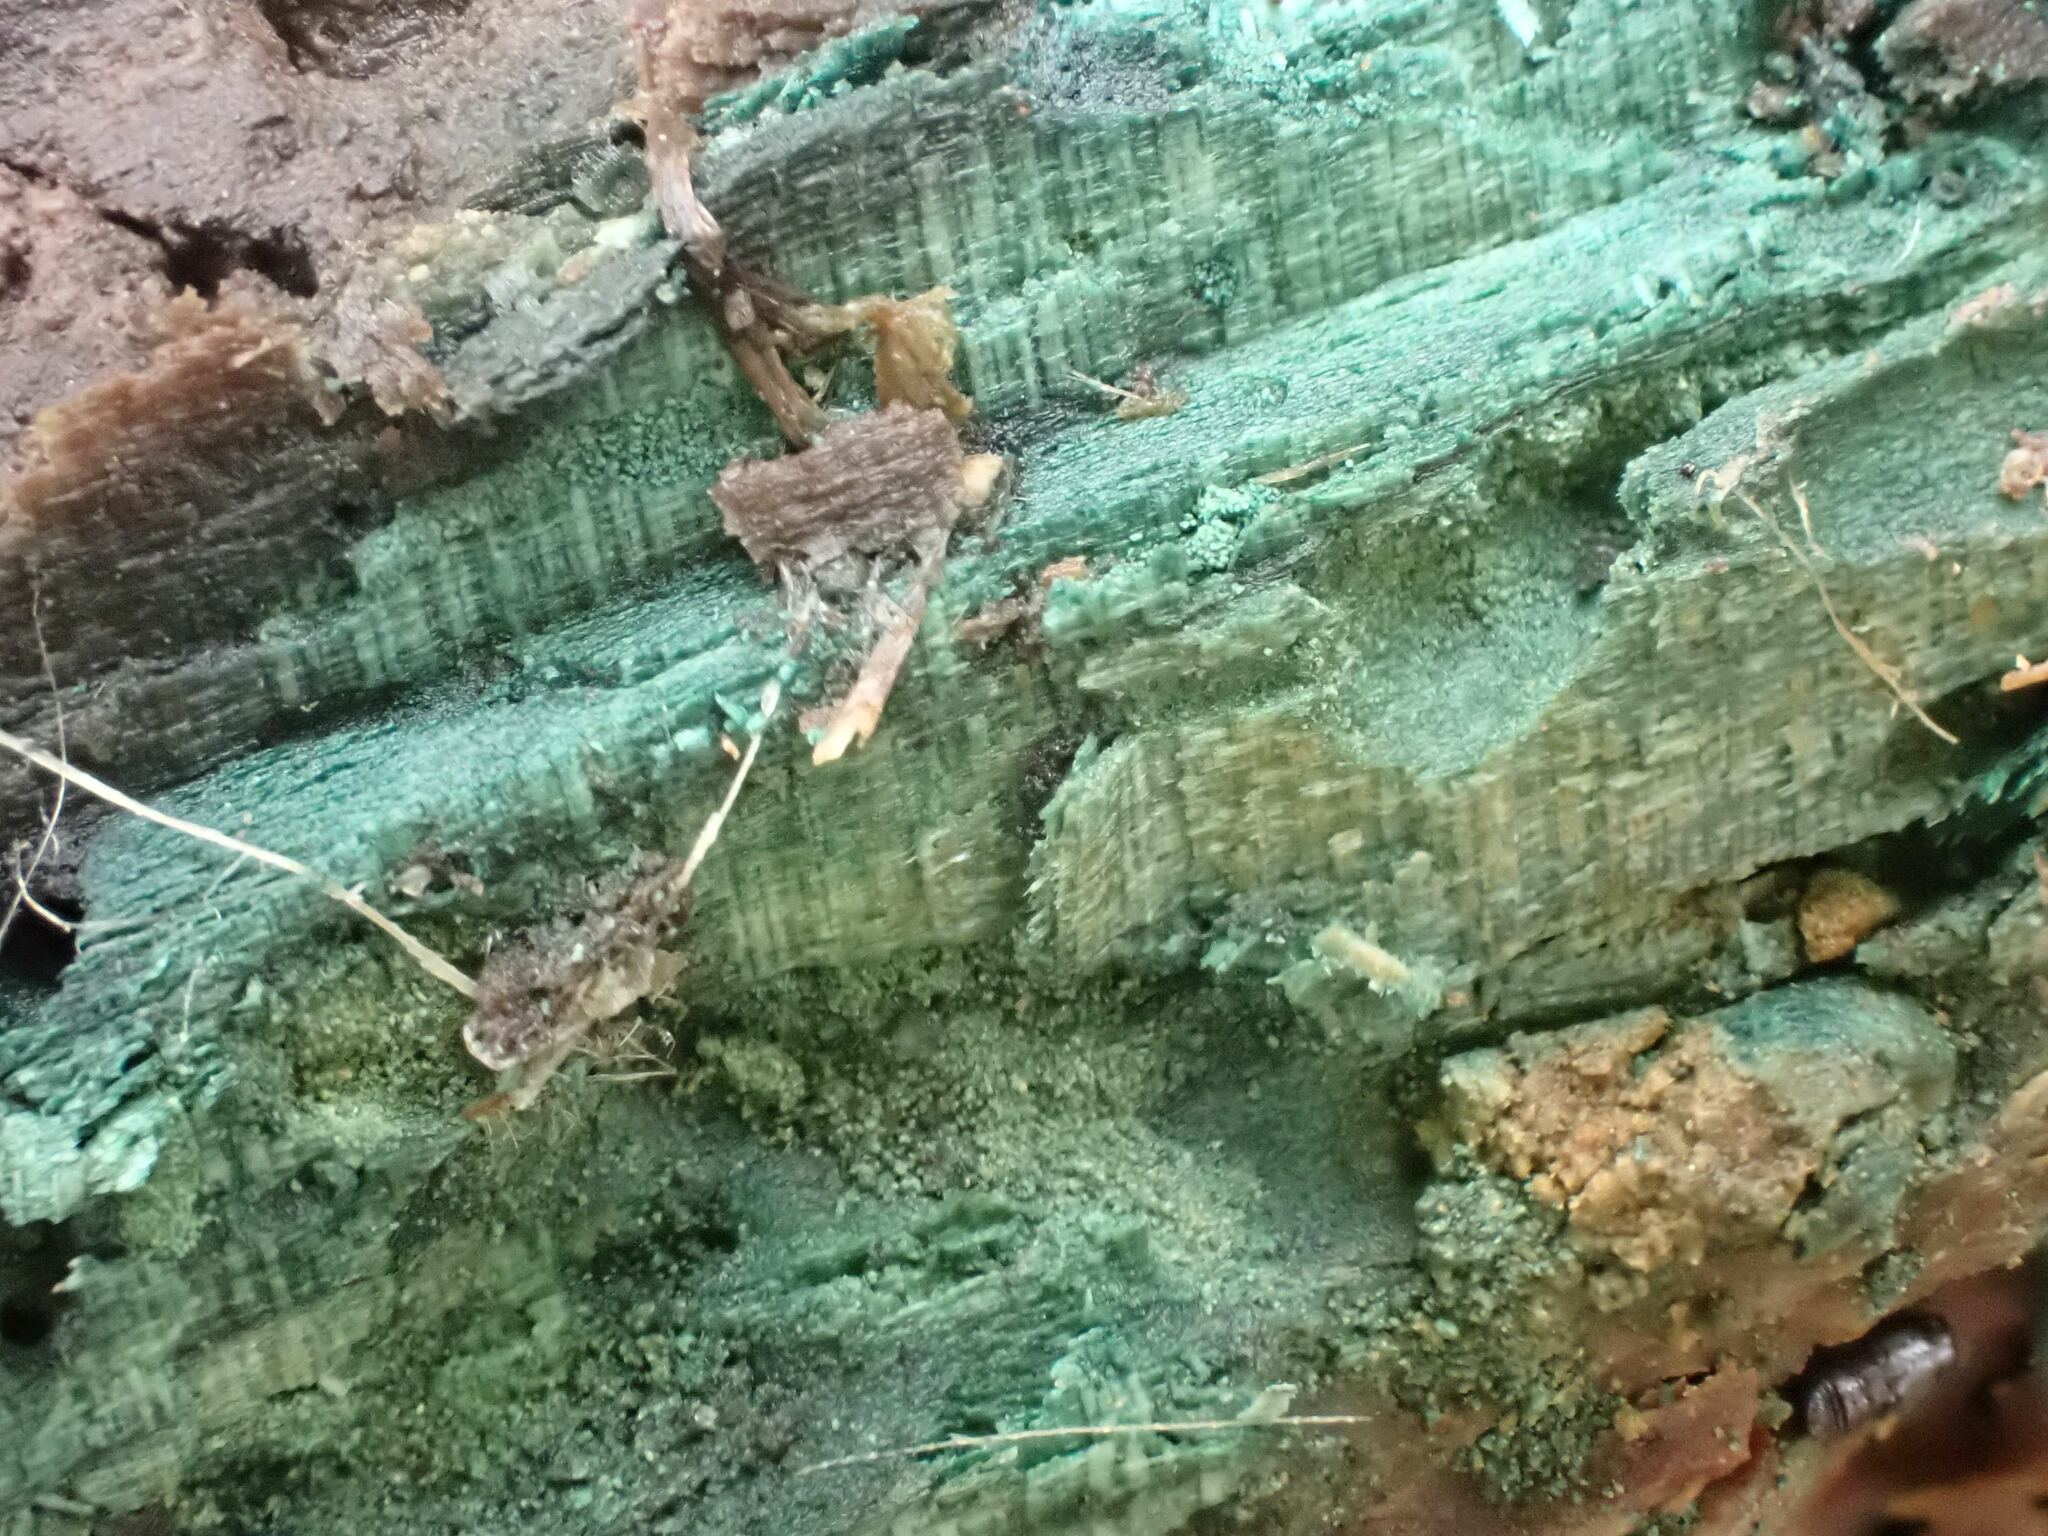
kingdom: Fungi
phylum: Ascomycota
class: Leotiomycetes
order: Helotiales
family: Chlorociboriaceae
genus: Chlorociboria
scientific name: Chlorociboria
